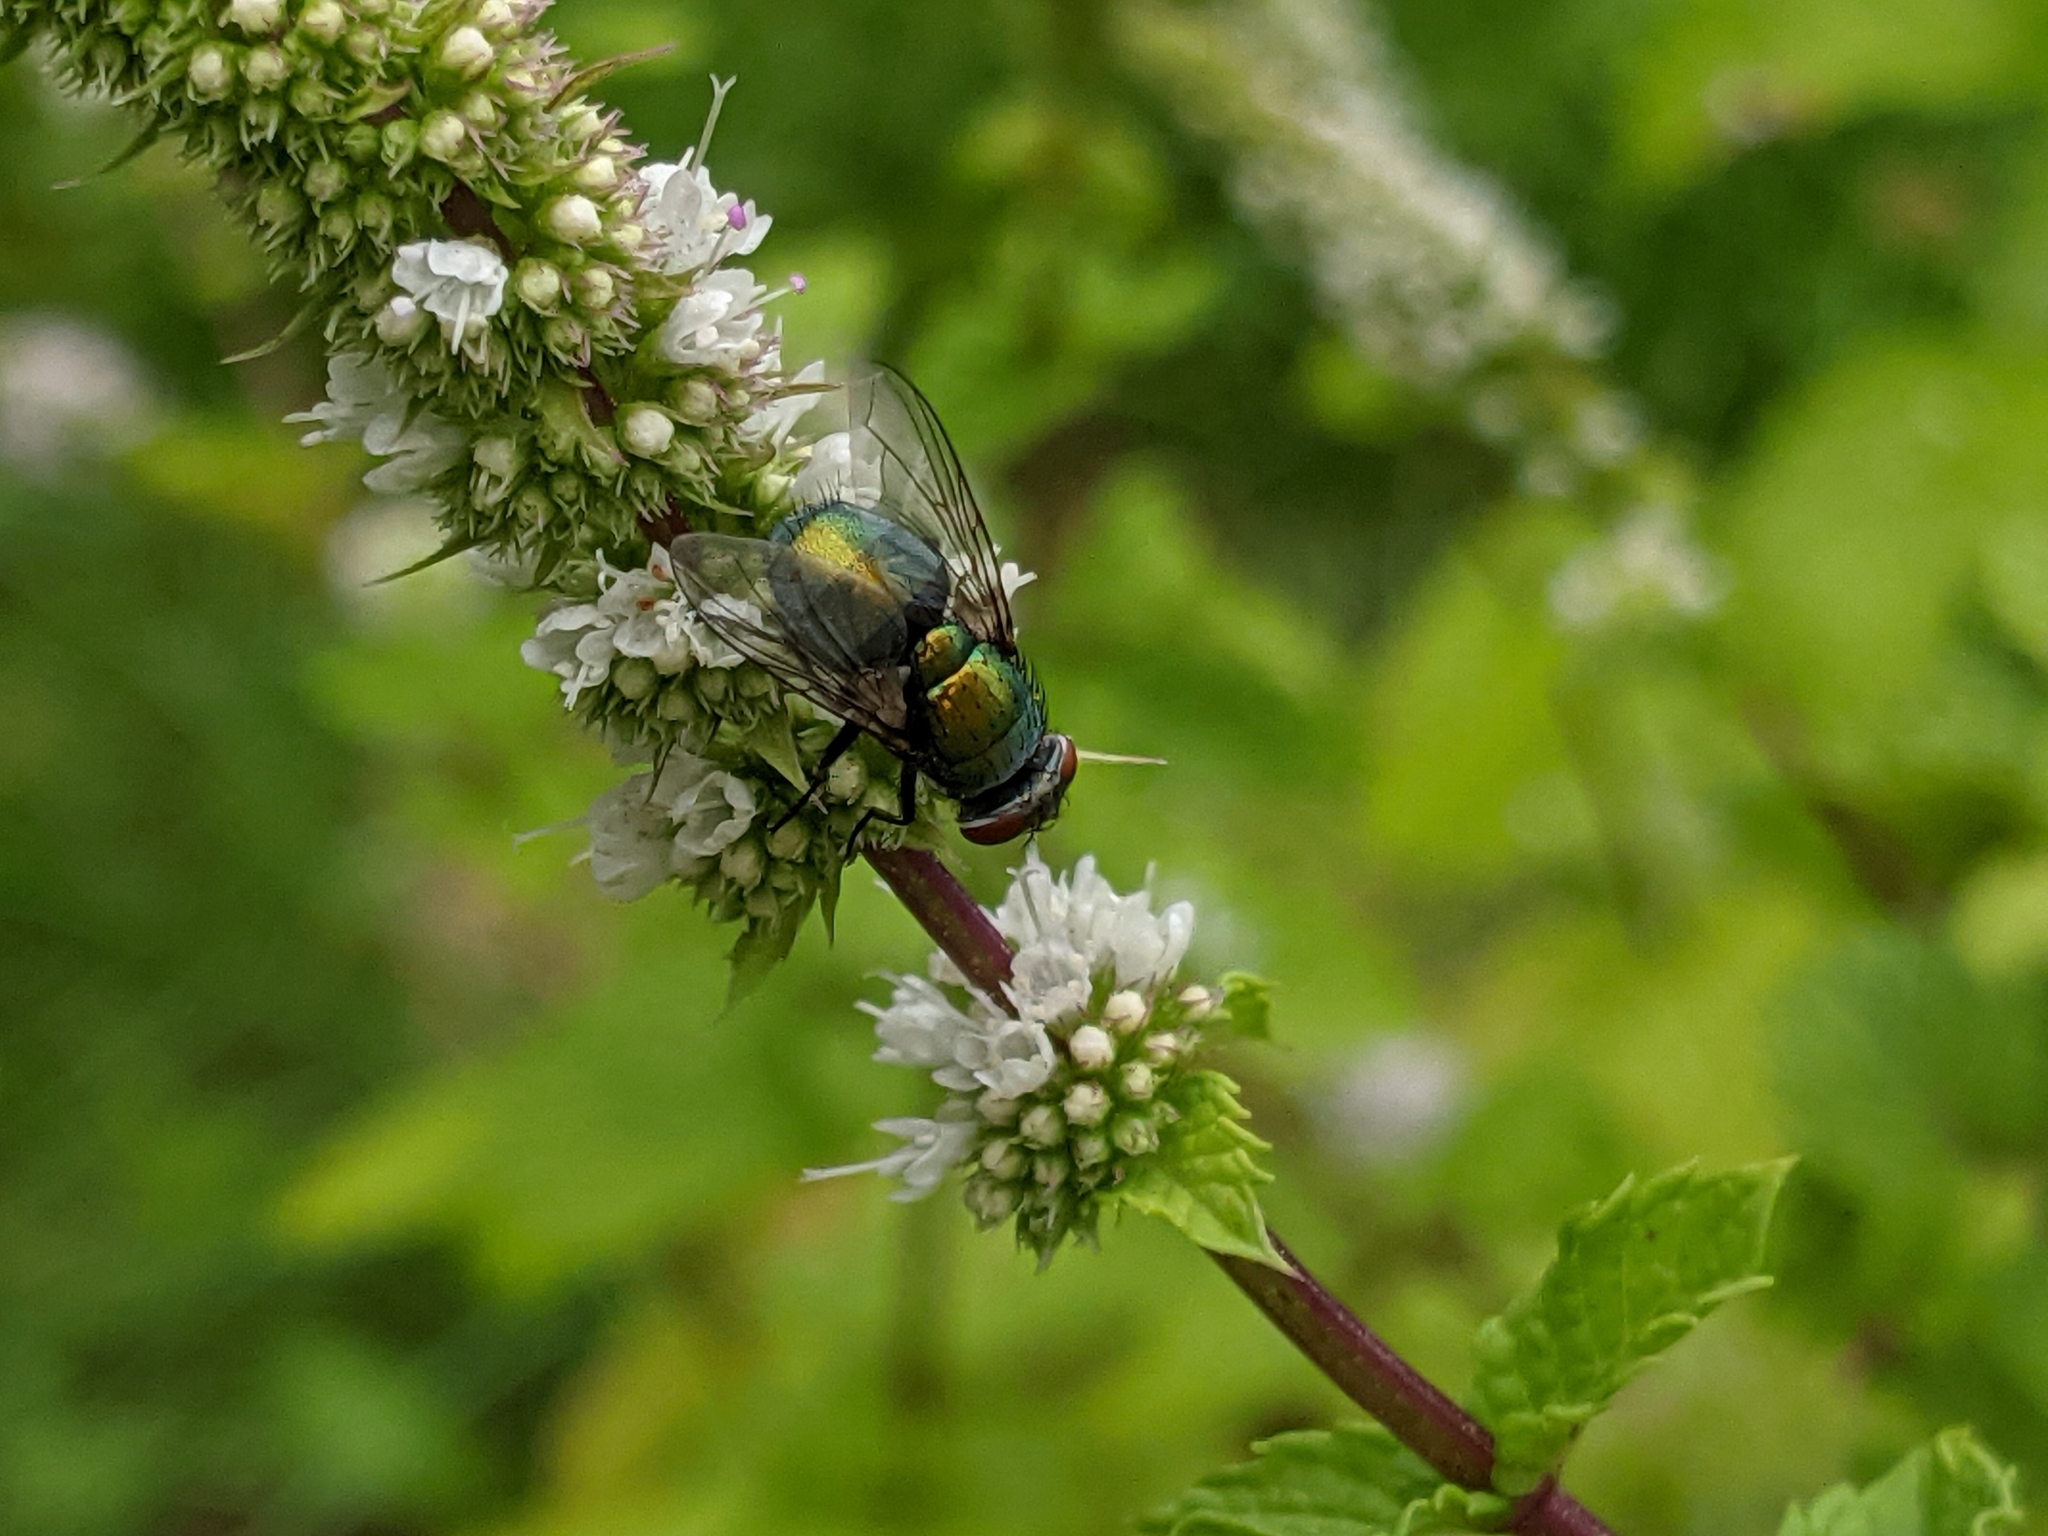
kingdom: Animalia
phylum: Arthropoda
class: Insecta
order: Diptera
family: Calliphoridae
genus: Lucilia
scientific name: Lucilia sericata
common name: Blow fly
